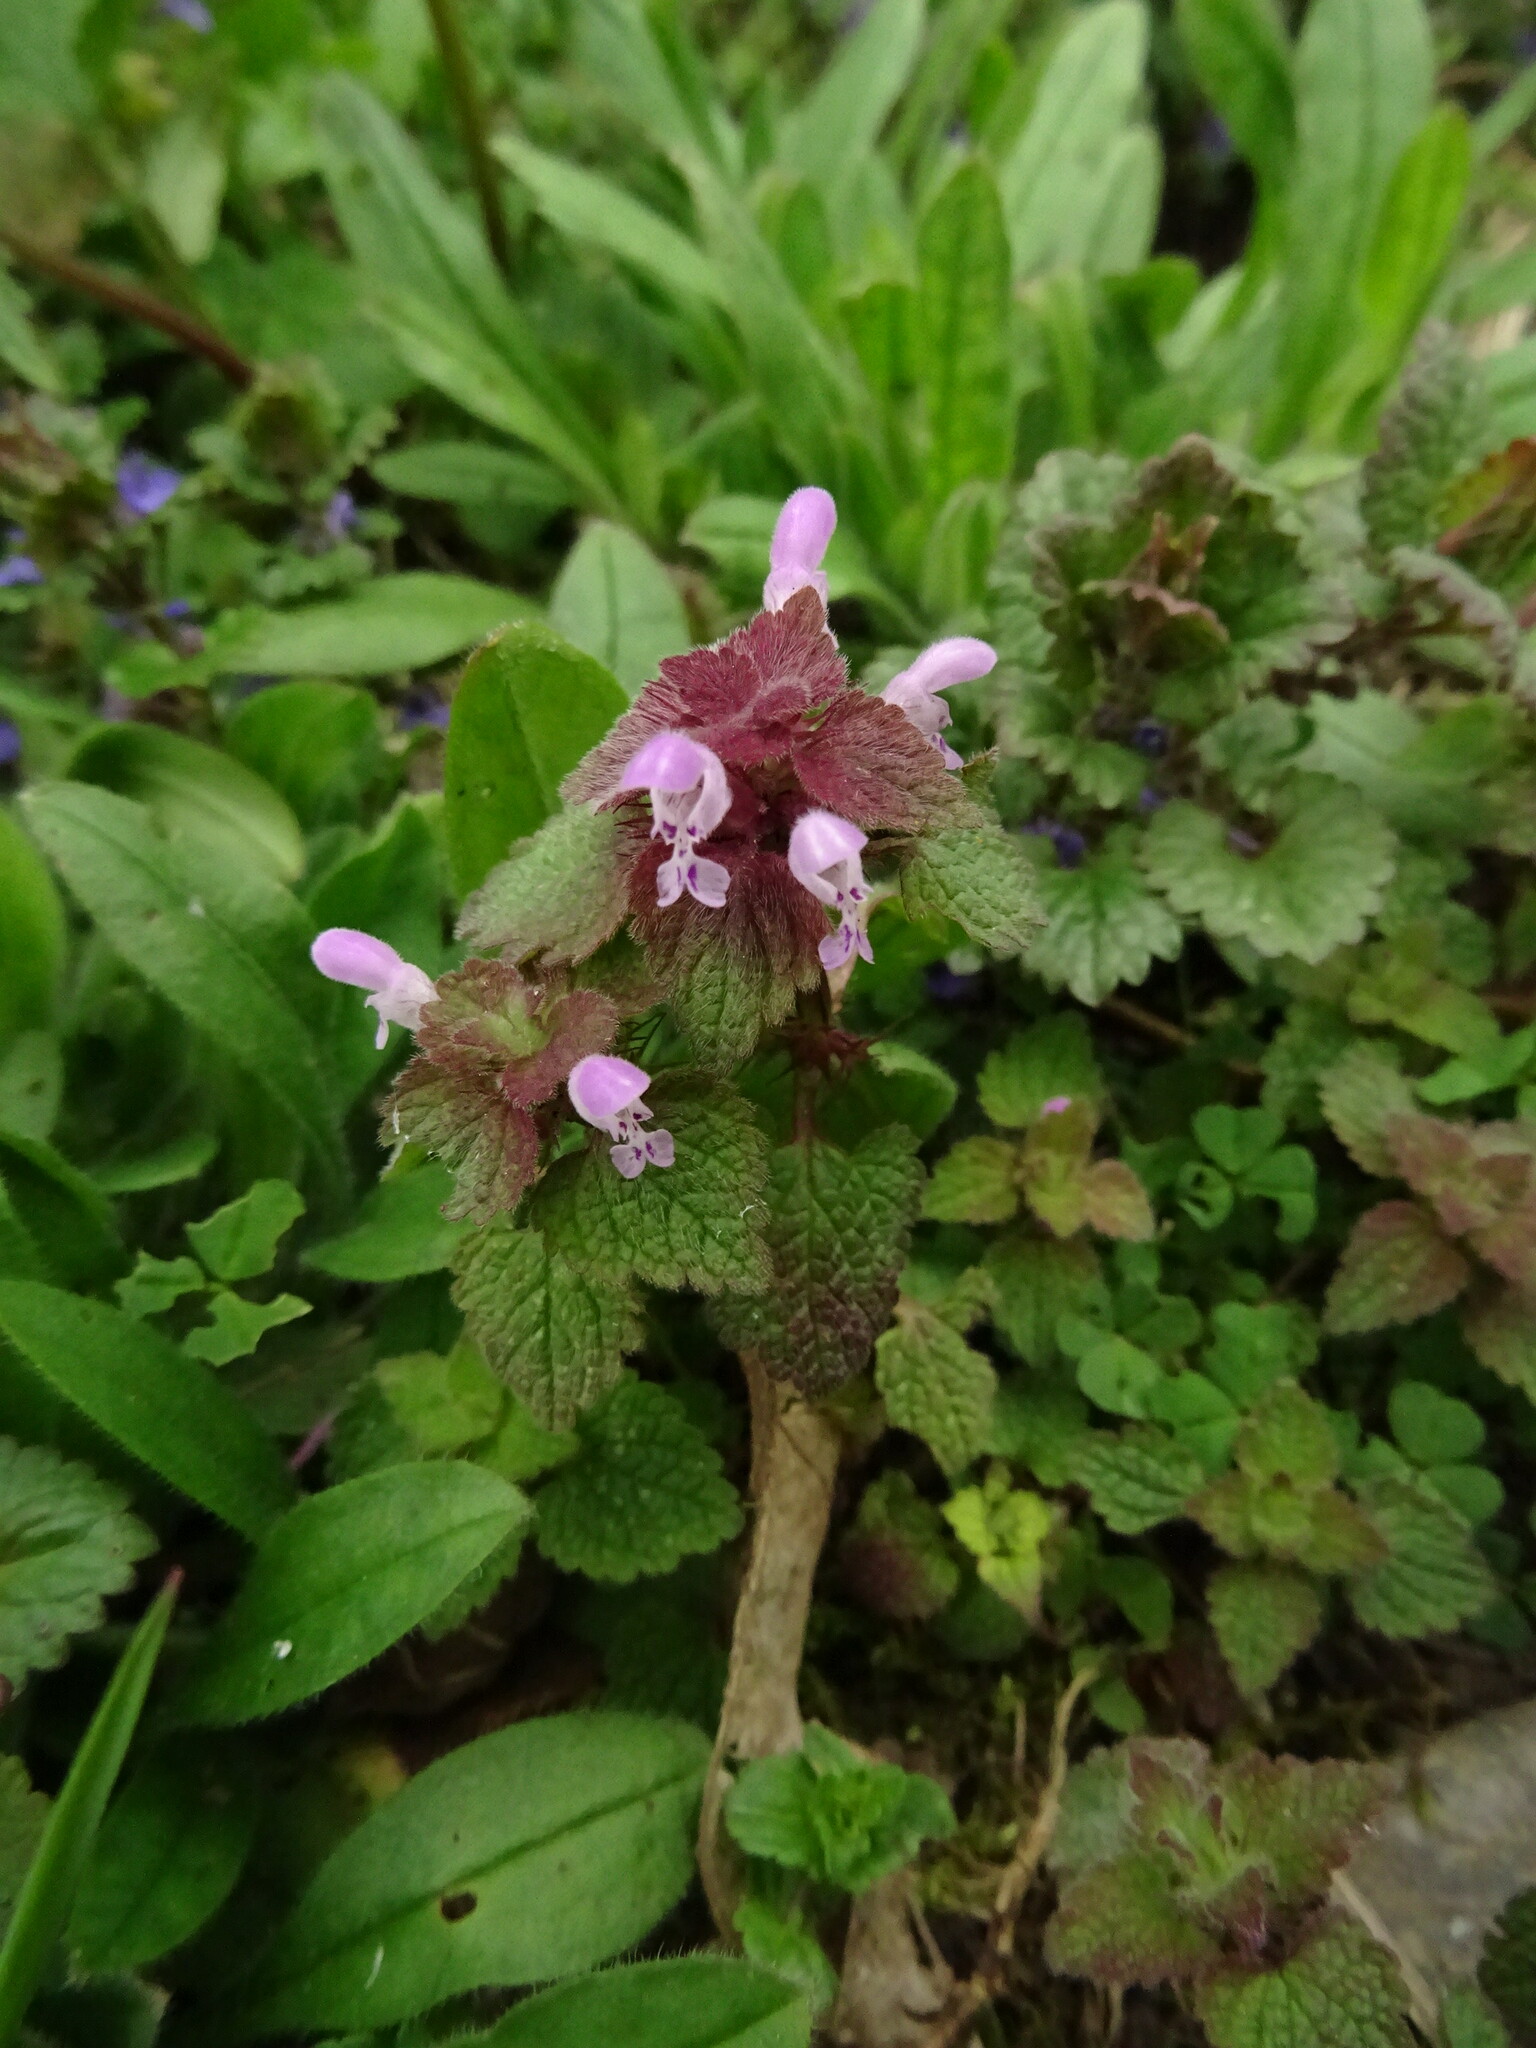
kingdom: Plantae
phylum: Tracheophyta
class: Magnoliopsida
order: Lamiales
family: Lamiaceae
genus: Lamium
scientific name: Lamium purpureum
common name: Red dead-nettle
